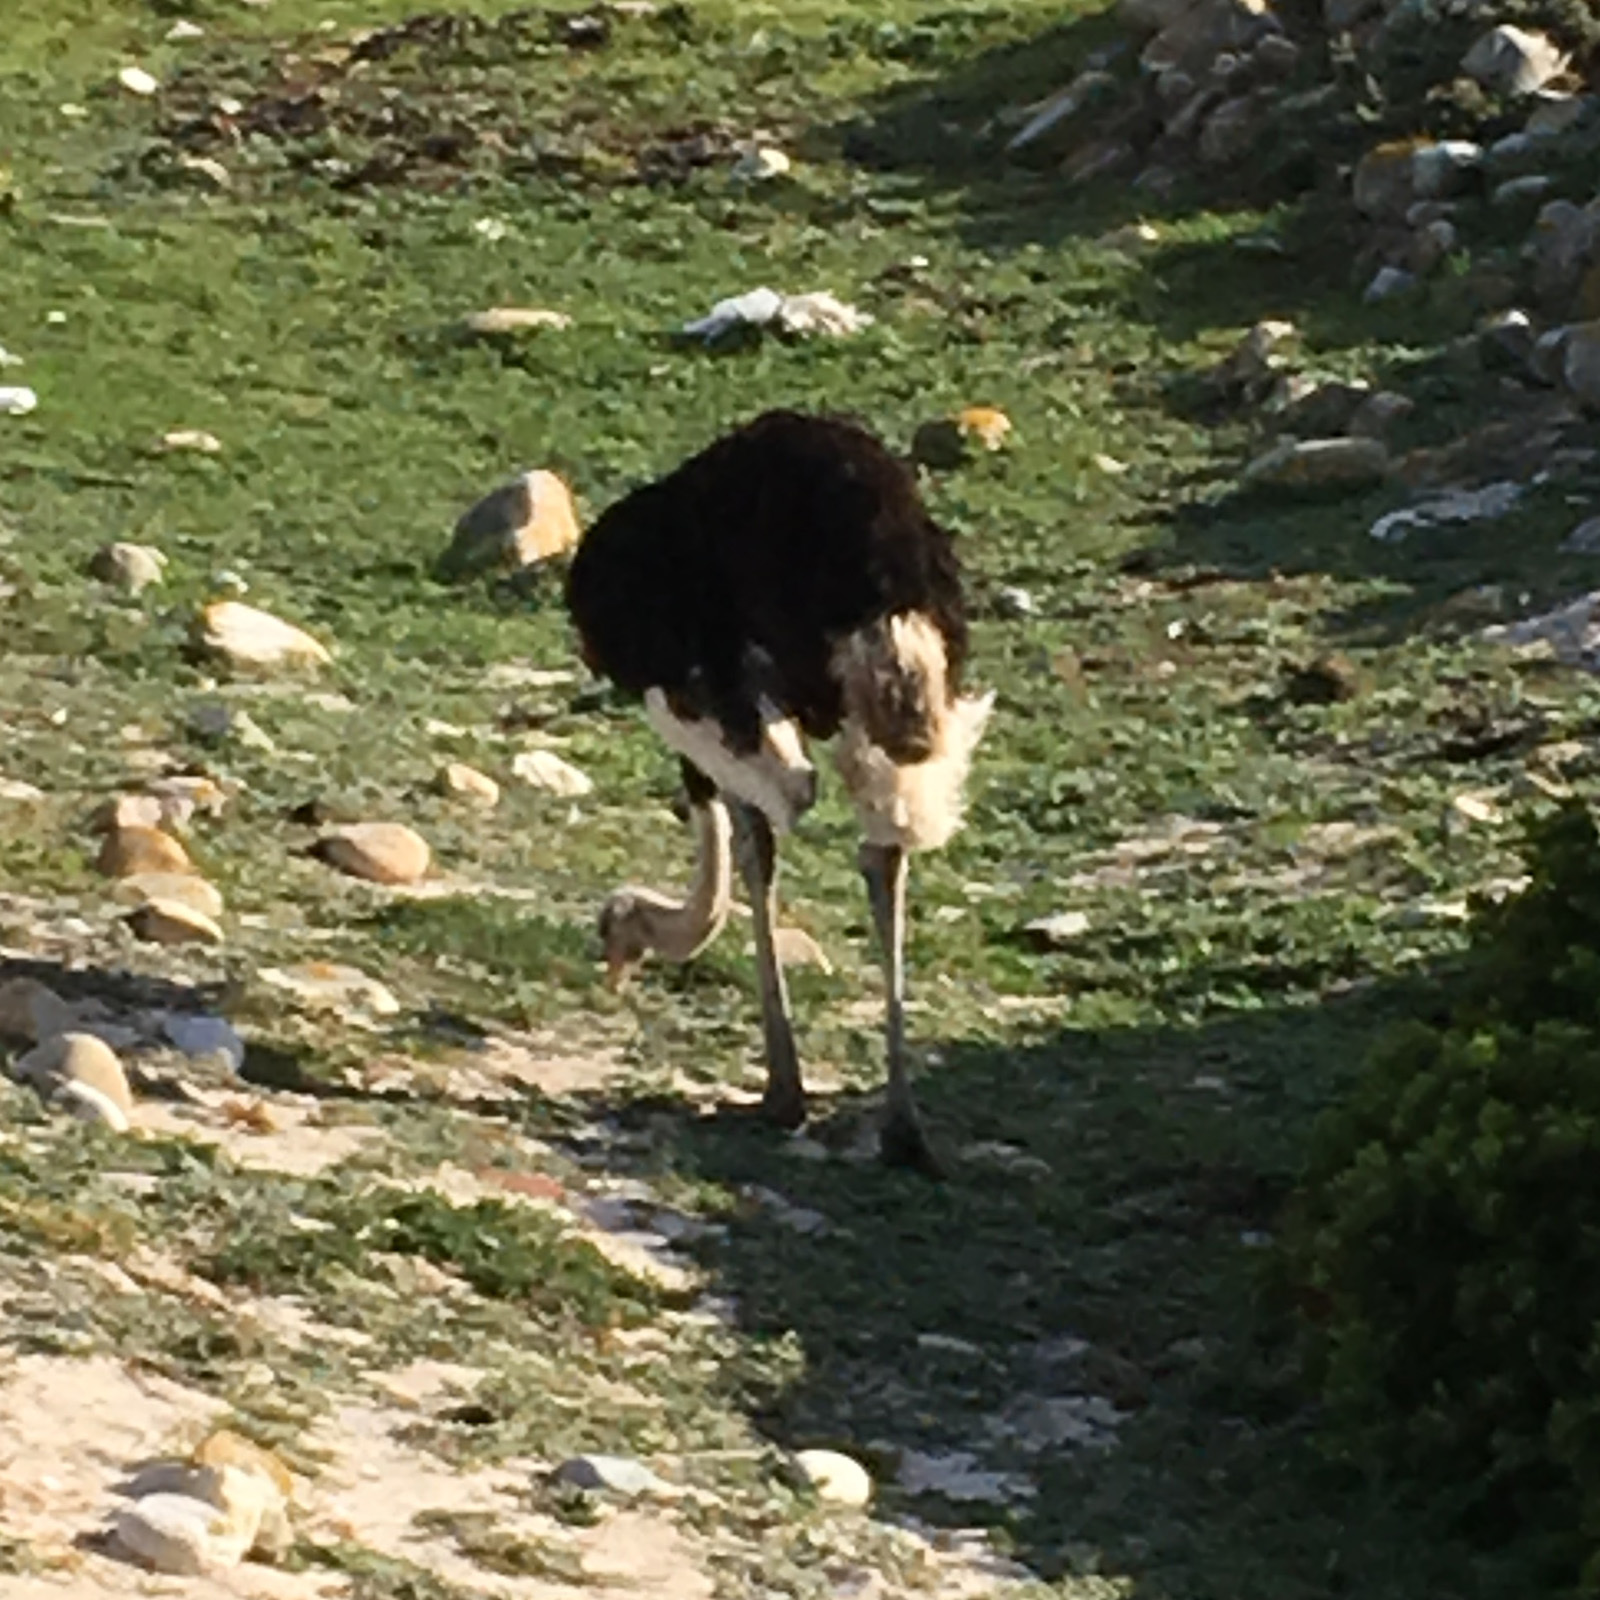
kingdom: Animalia
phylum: Chordata
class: Aves
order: Struthioniformes
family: Struthionidae
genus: Struthio
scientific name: Struthio camelus
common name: Common ostrich
